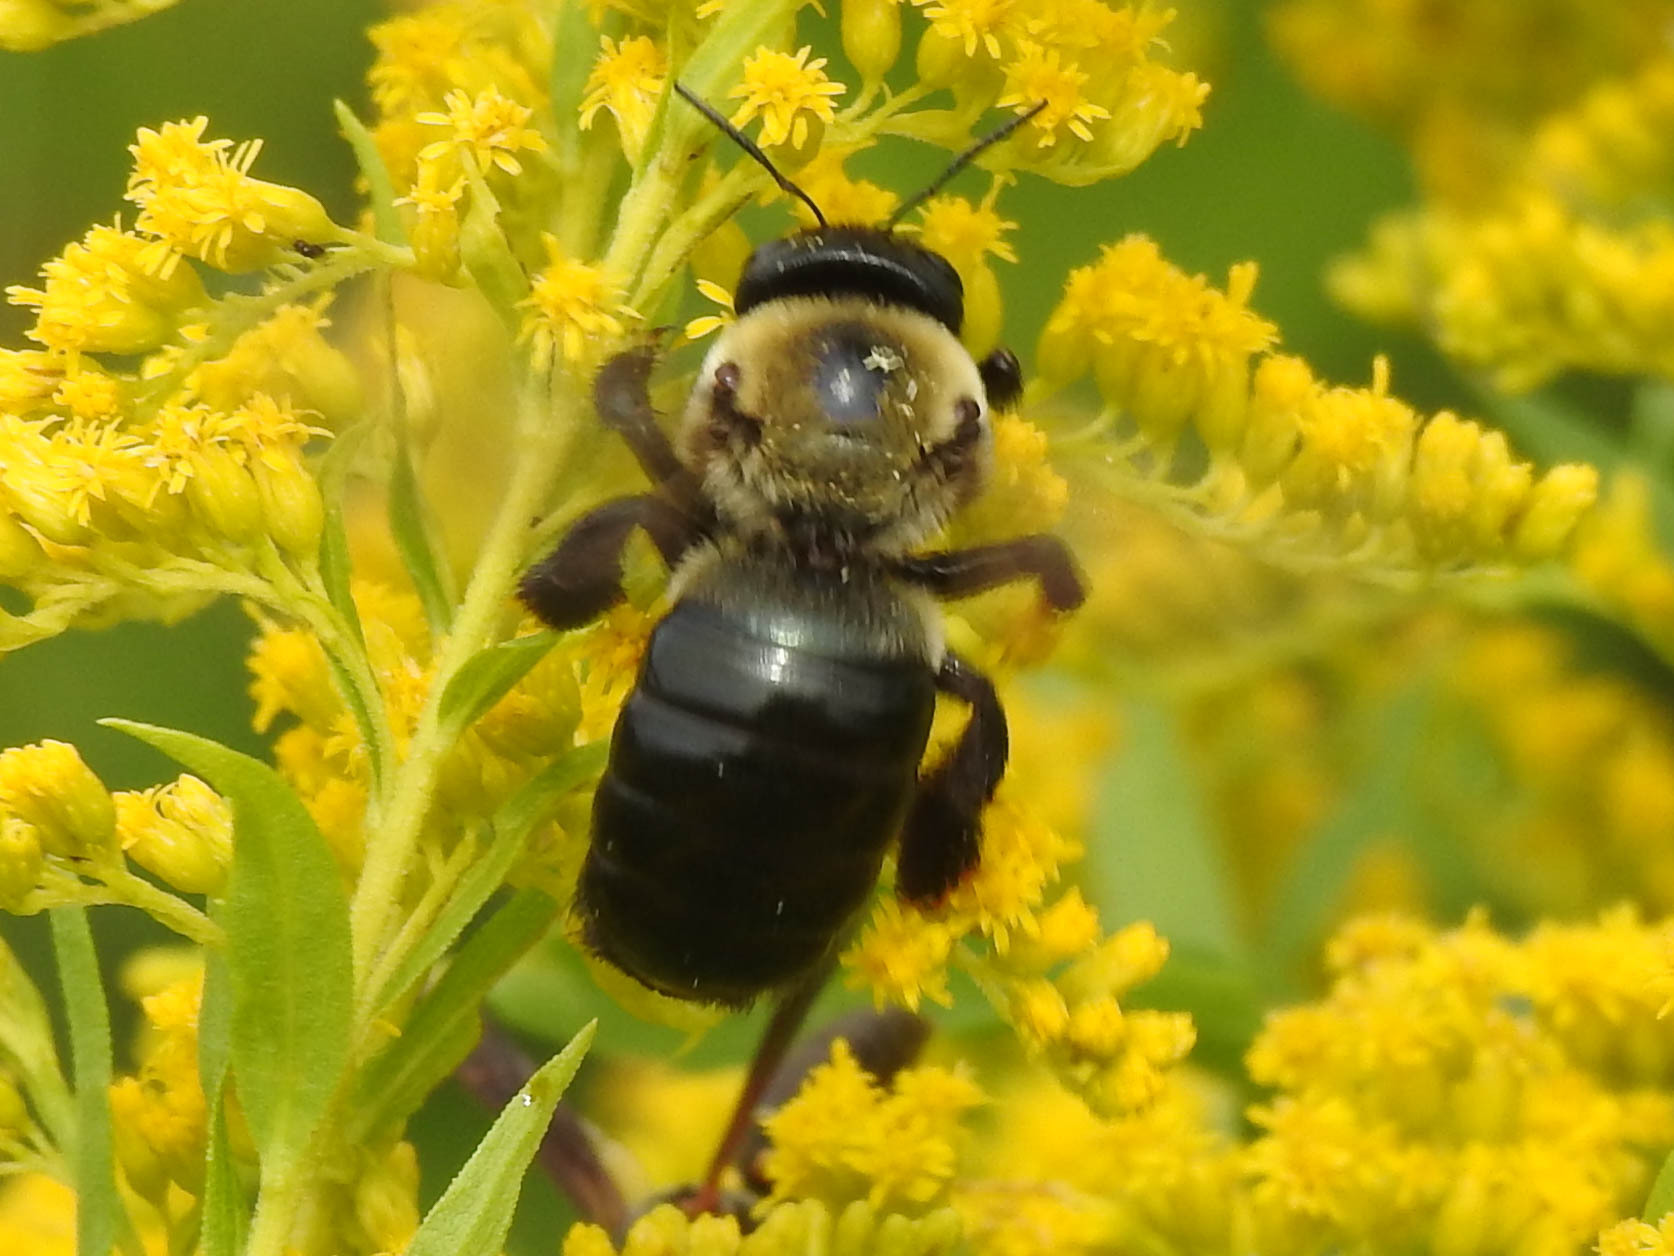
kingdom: Animalia
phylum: Arthropoda
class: Insecta
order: Hymenoptera
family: Apidae
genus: Xylocopa
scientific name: Xylocopa virginica
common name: Carpenter bee
